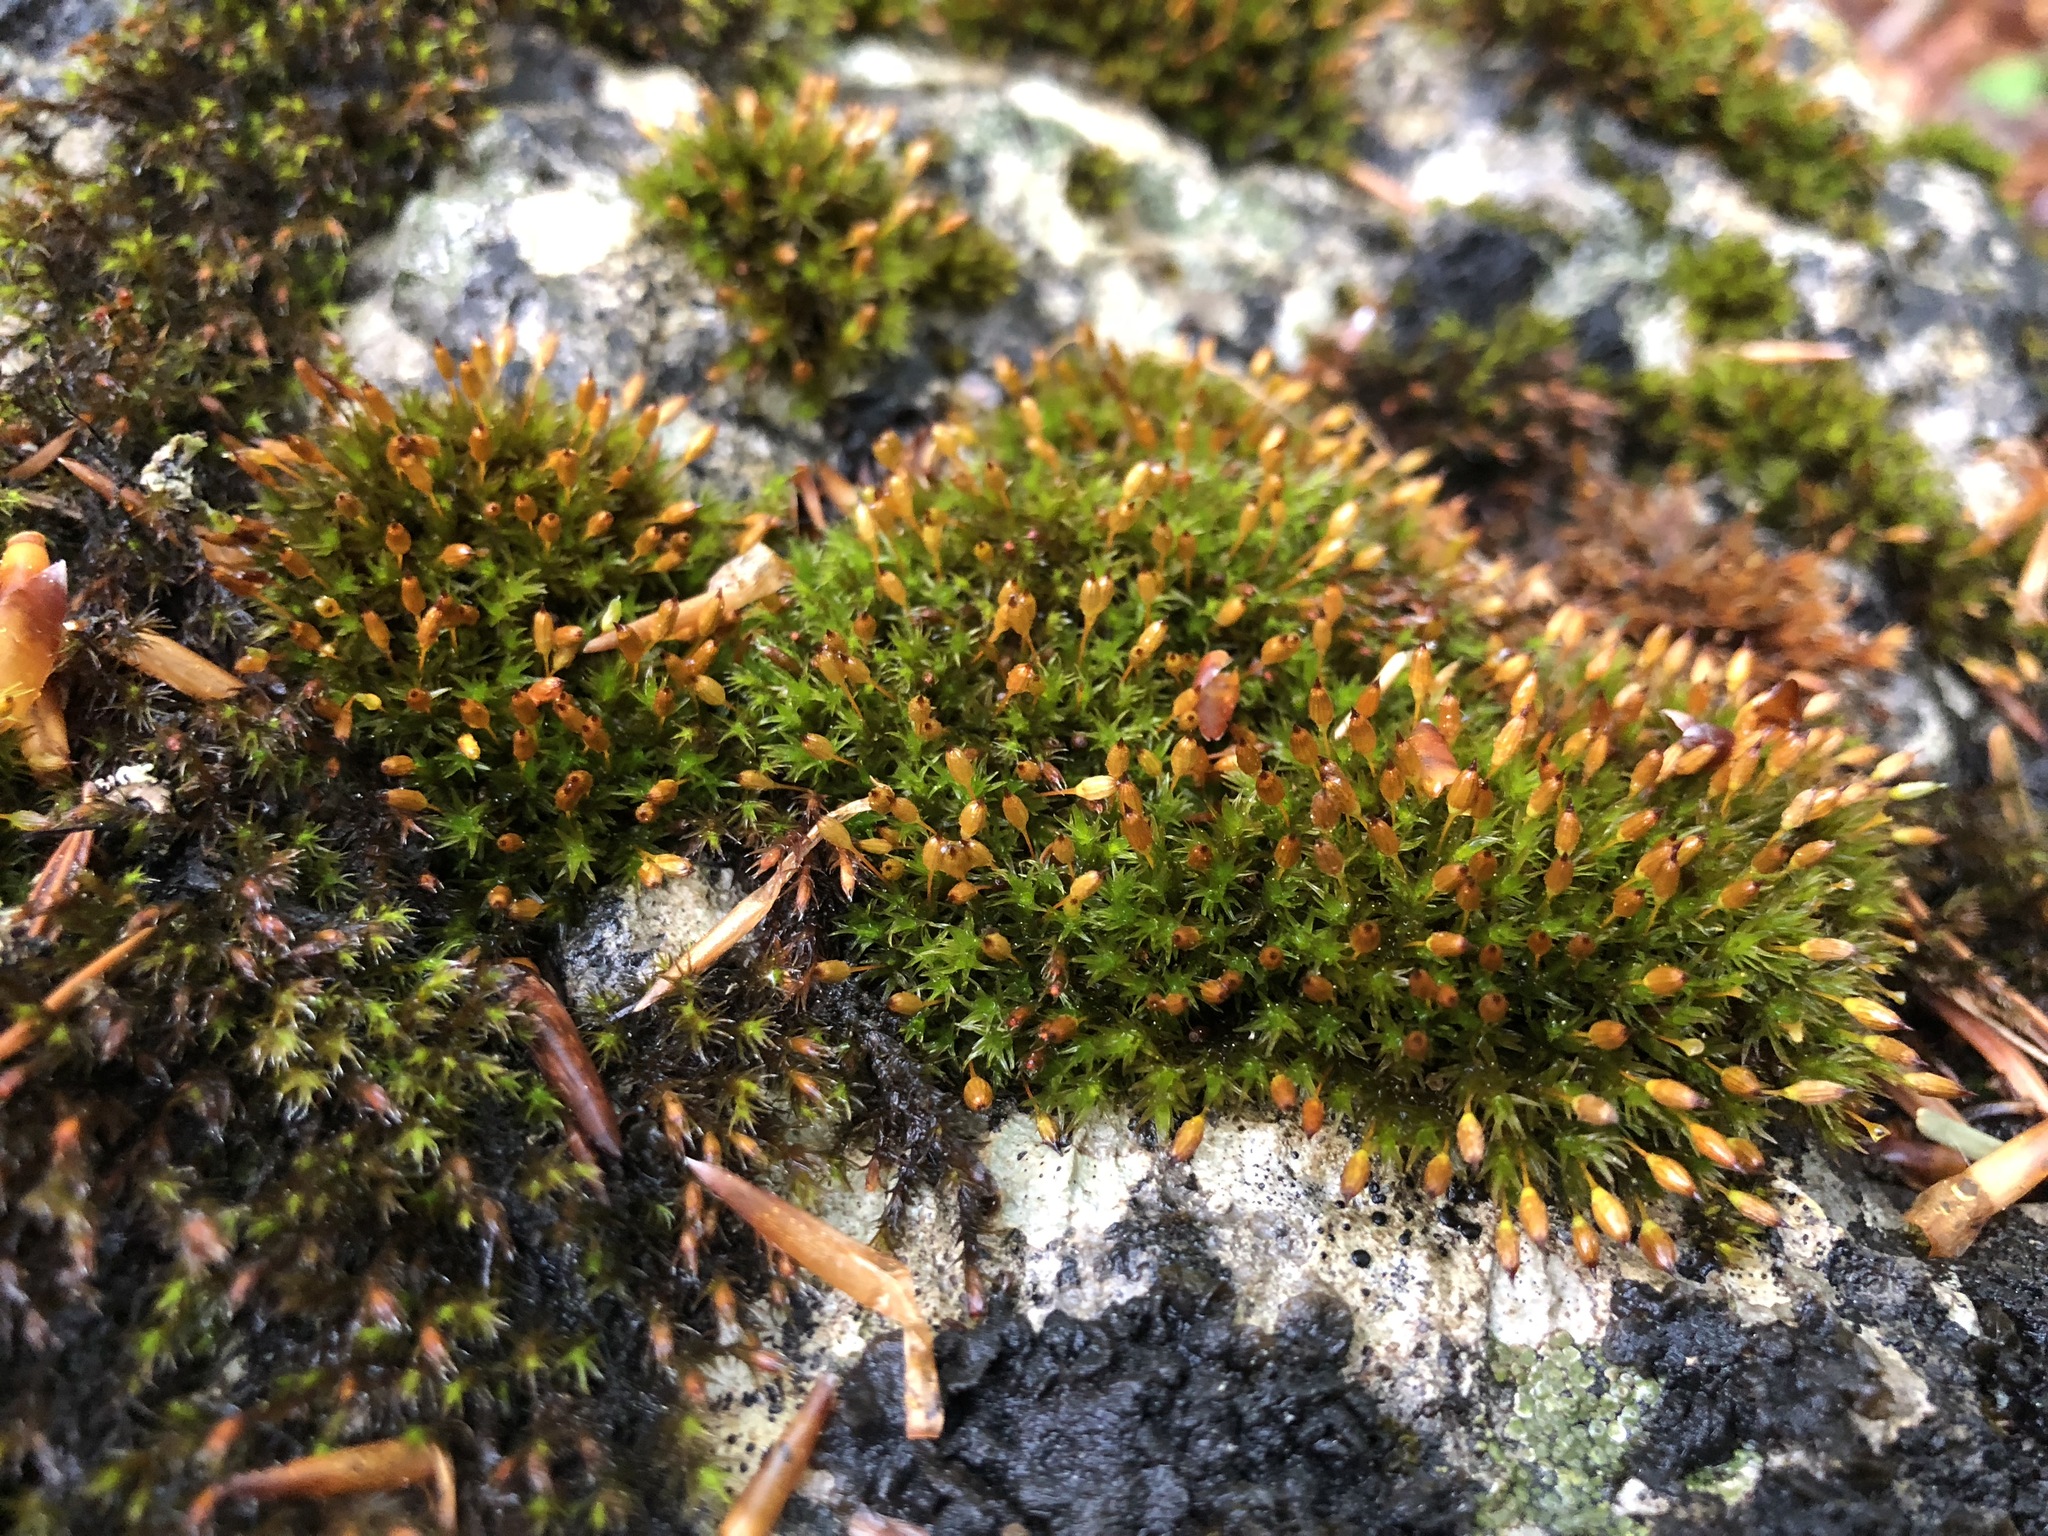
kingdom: Plantae
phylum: Bryophyta
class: Bryopsida
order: Orthotrichales
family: Orthotrichaceae
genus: Orthotrichum
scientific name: Orthotrichum anomalum
